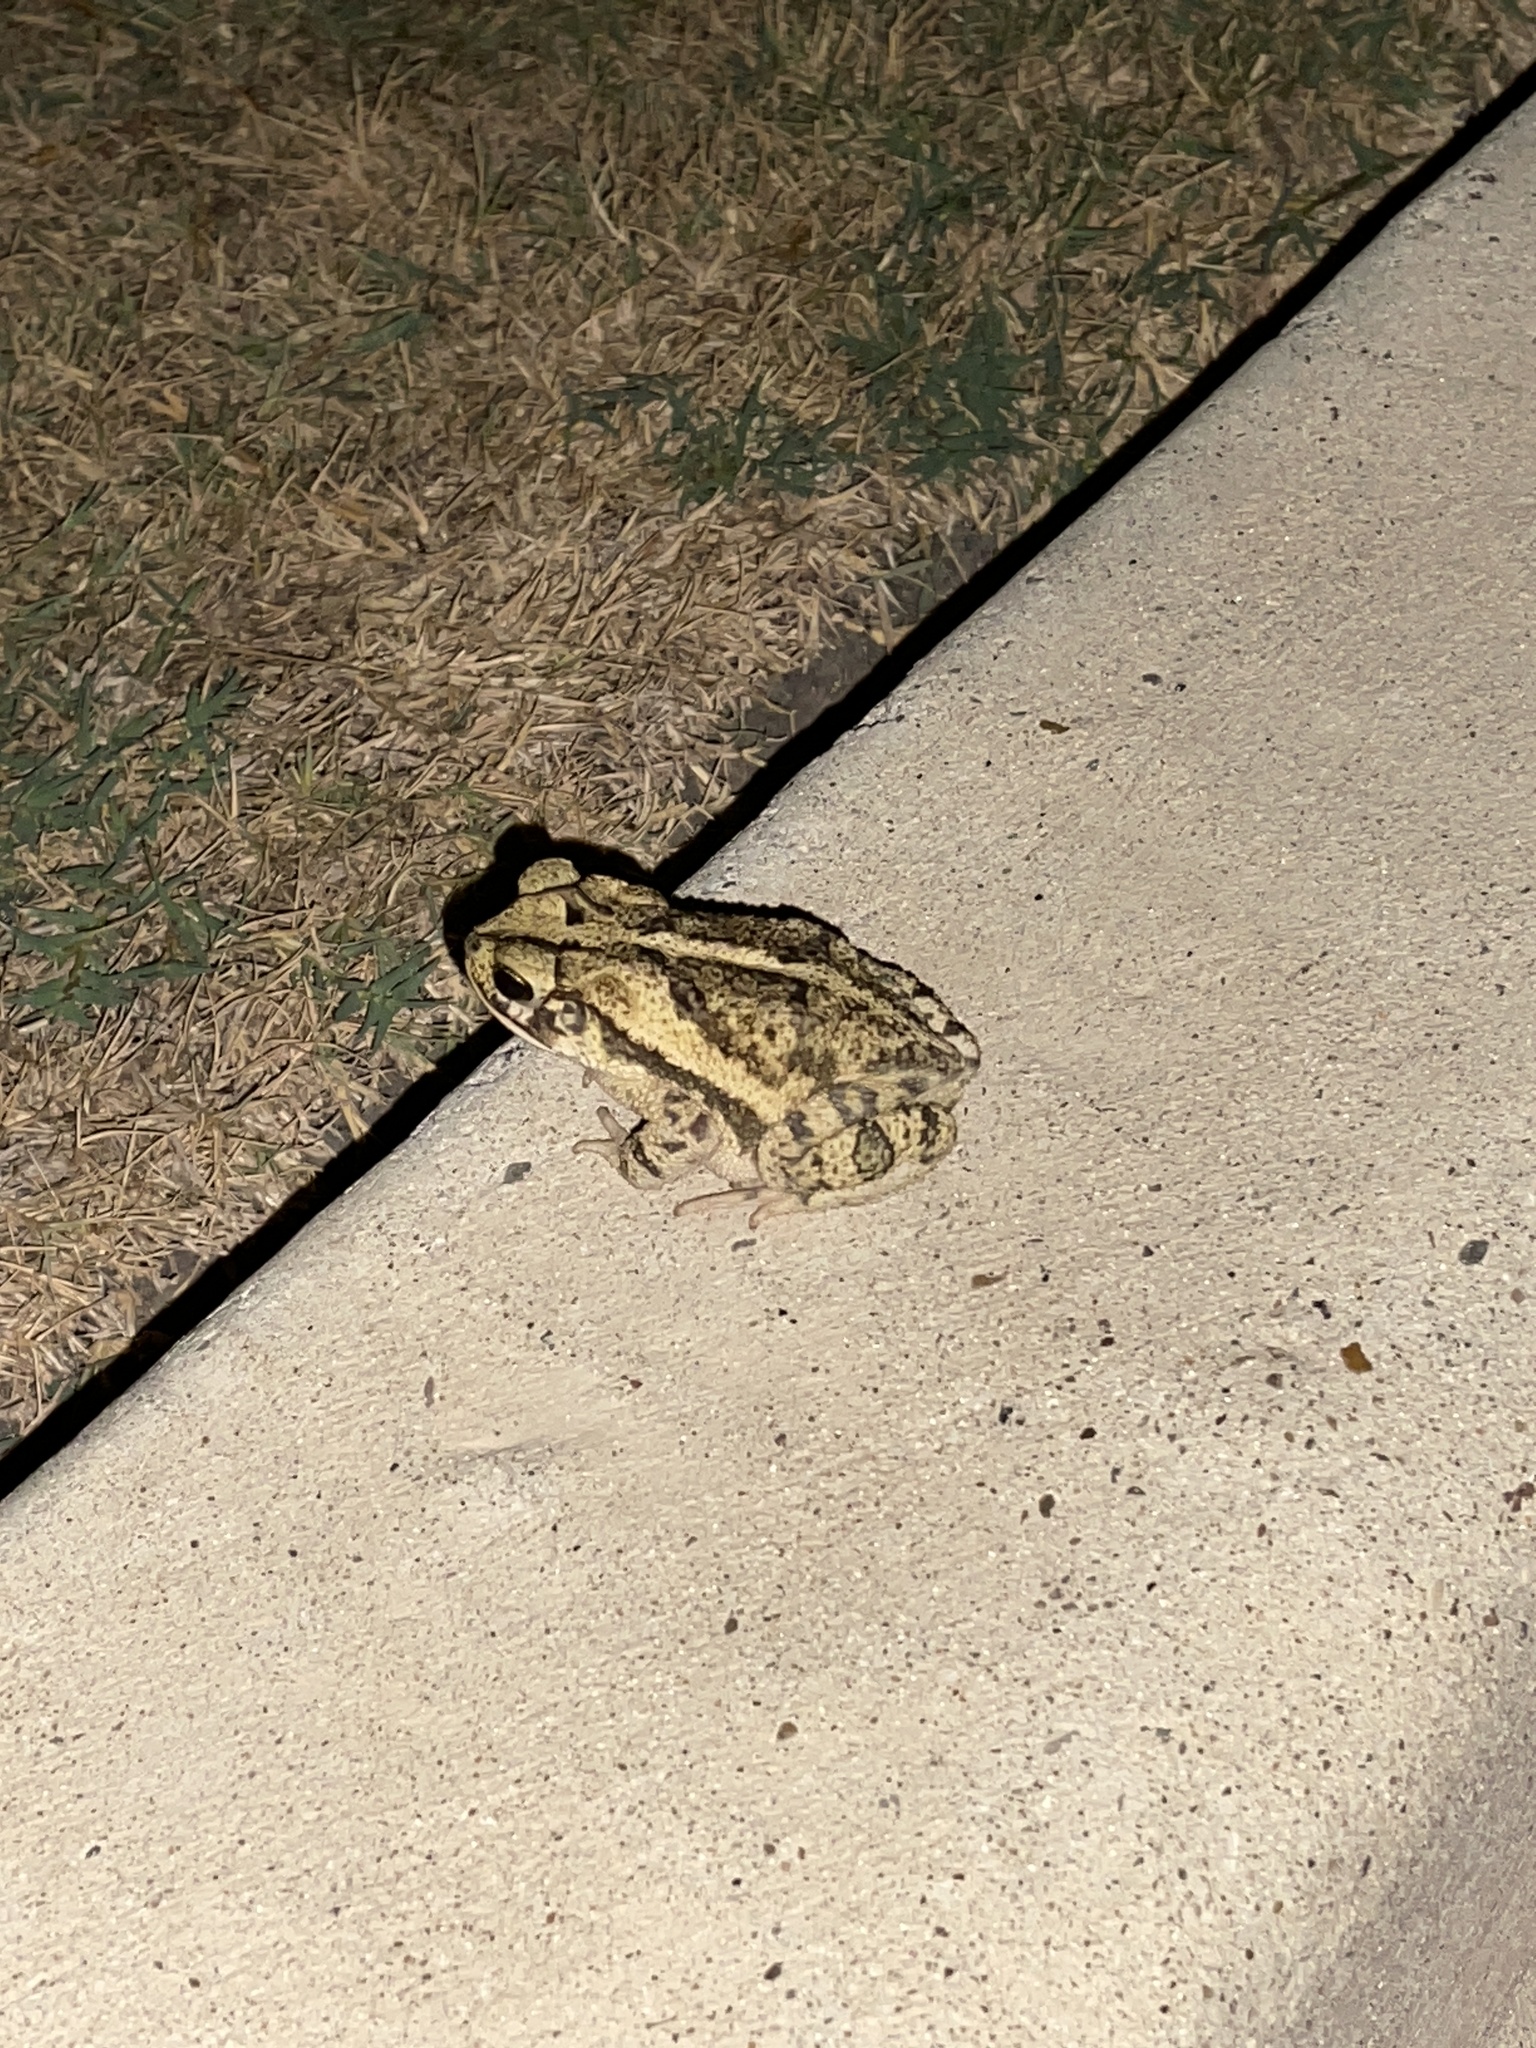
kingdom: Animalia
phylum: Chordata
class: Amphibia
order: Anura
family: Bufonidae
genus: Incilius
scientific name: Incilius nebulifer
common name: Gulf coast toad
